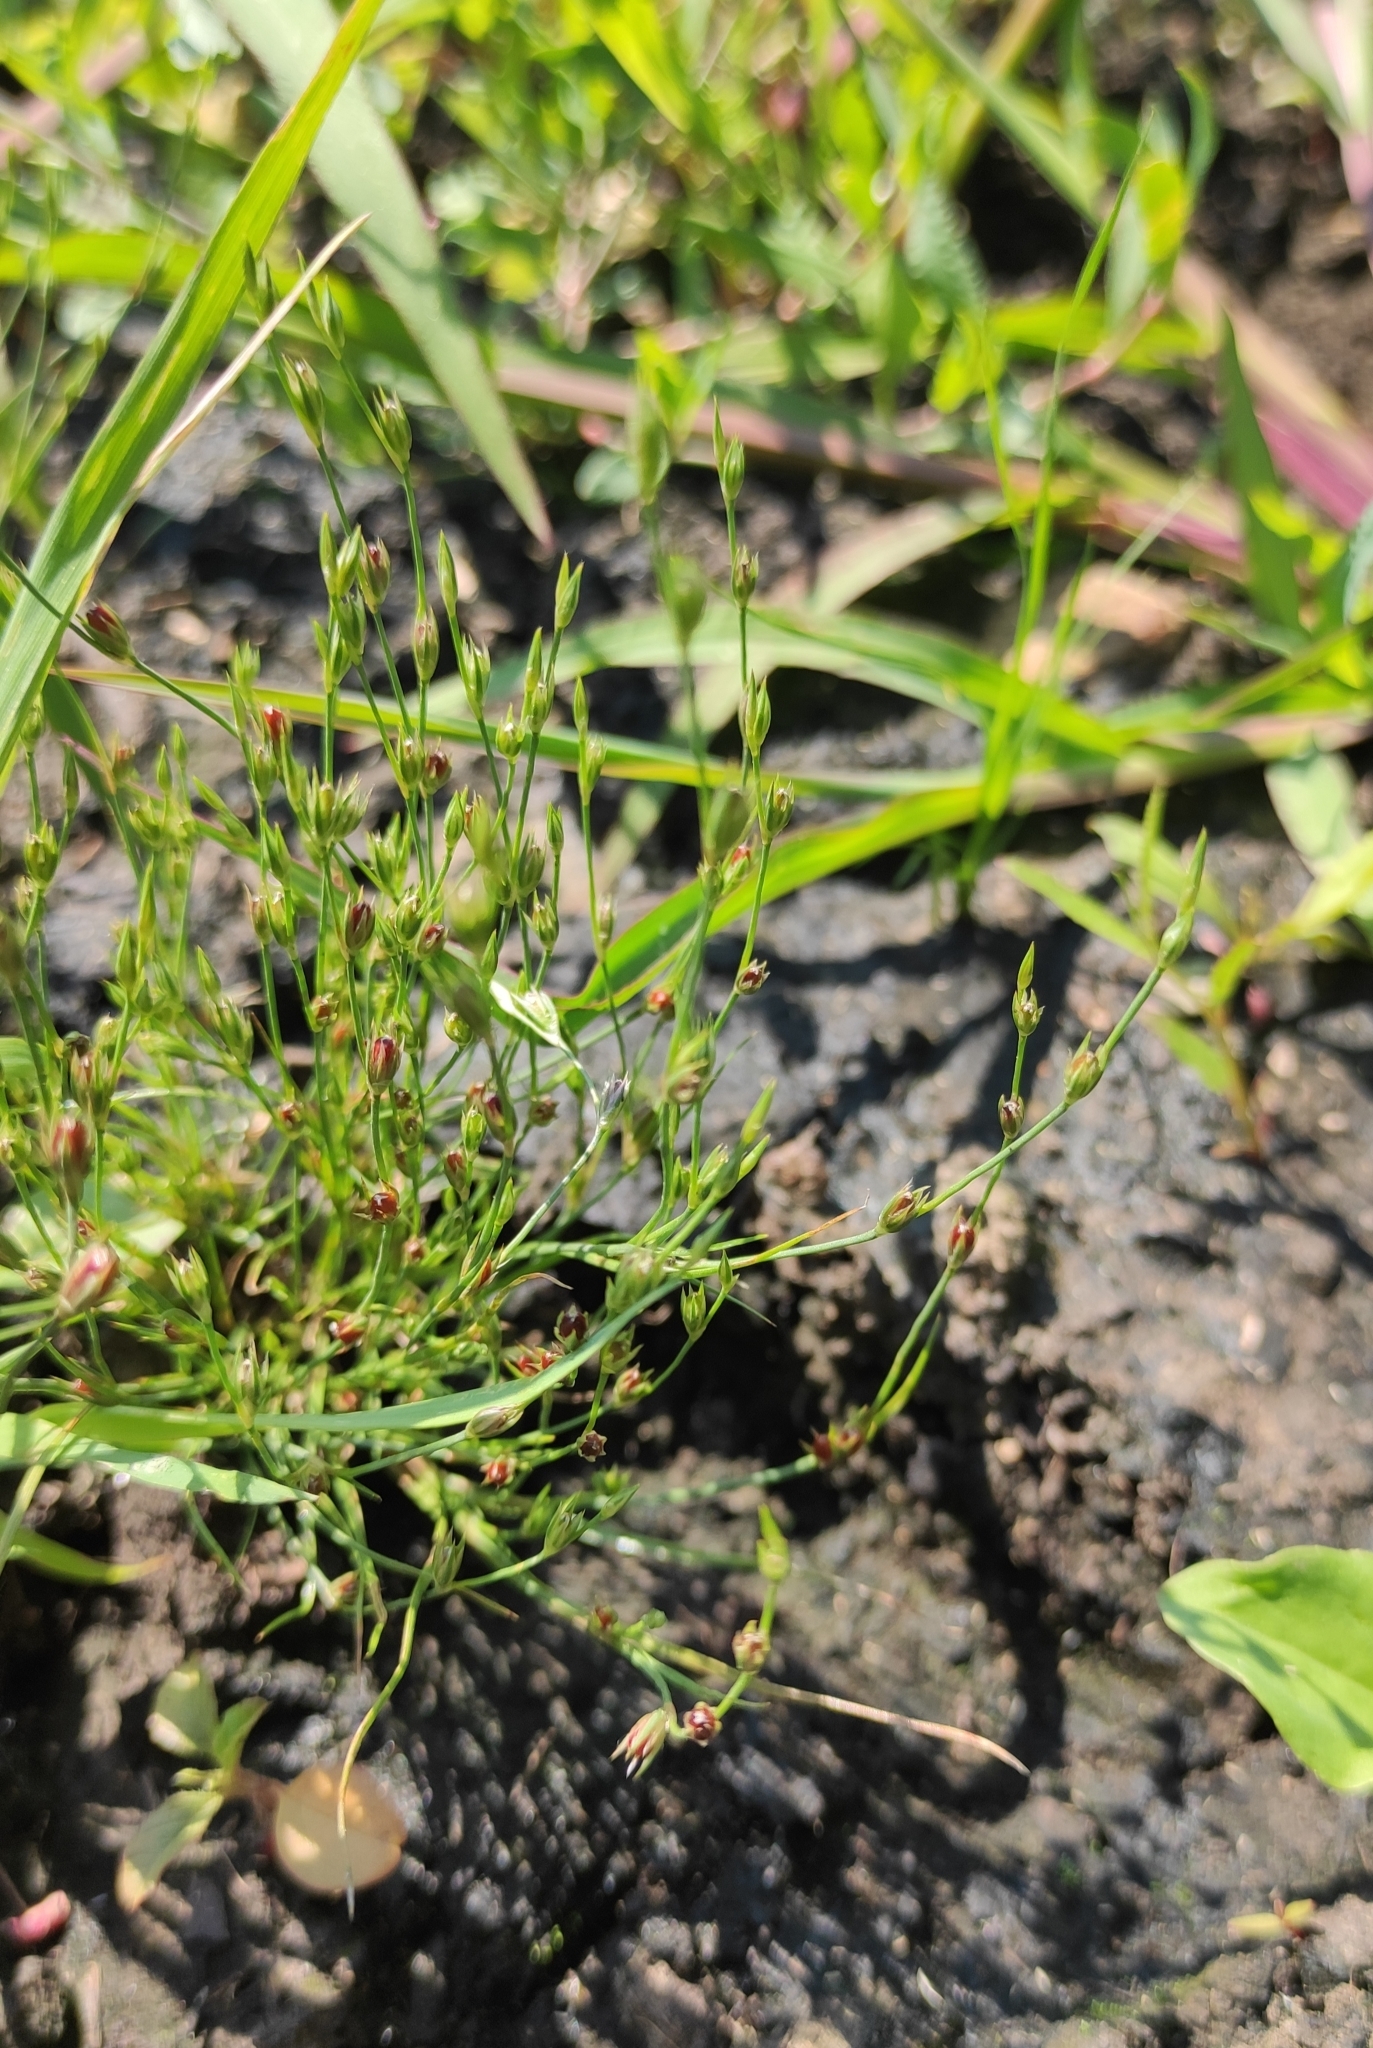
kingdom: Plantae
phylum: Tracheophyta
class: Liliopsida
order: Poales
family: Juncaceae
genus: Juncus
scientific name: Juncus bufonius
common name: Toad rush
